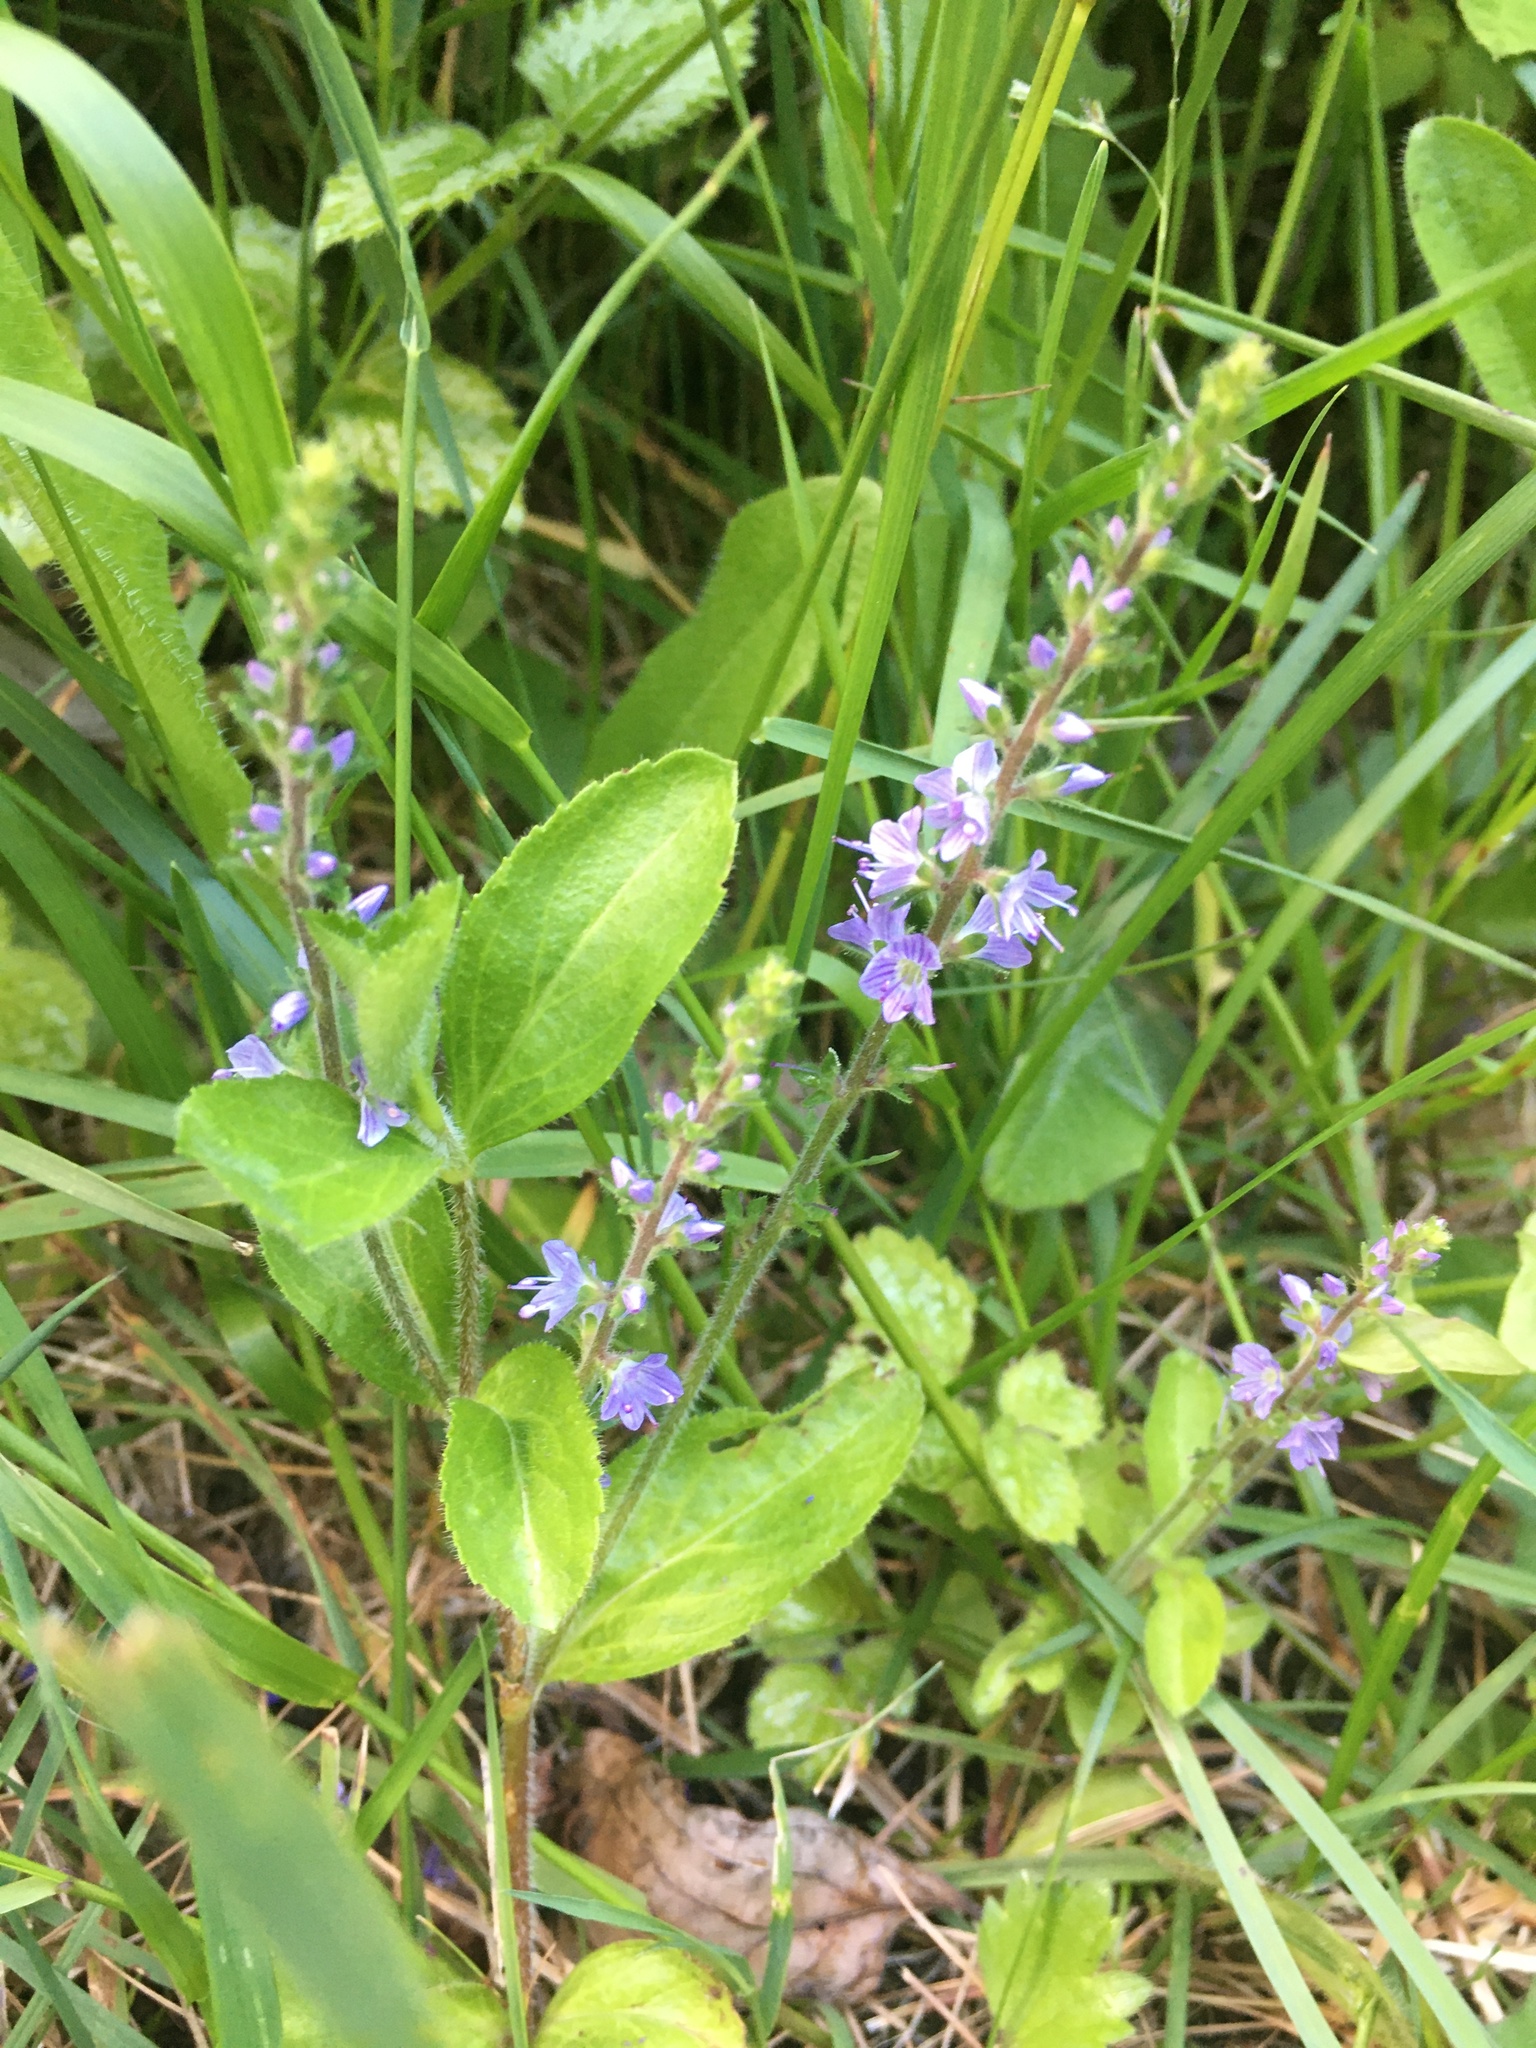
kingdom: Plantae
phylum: Tracheophyta
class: Magnoliopsida
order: Lamiales
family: Plantaginaceae
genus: Veronica
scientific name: Veronica officinalis
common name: Common speedwell
